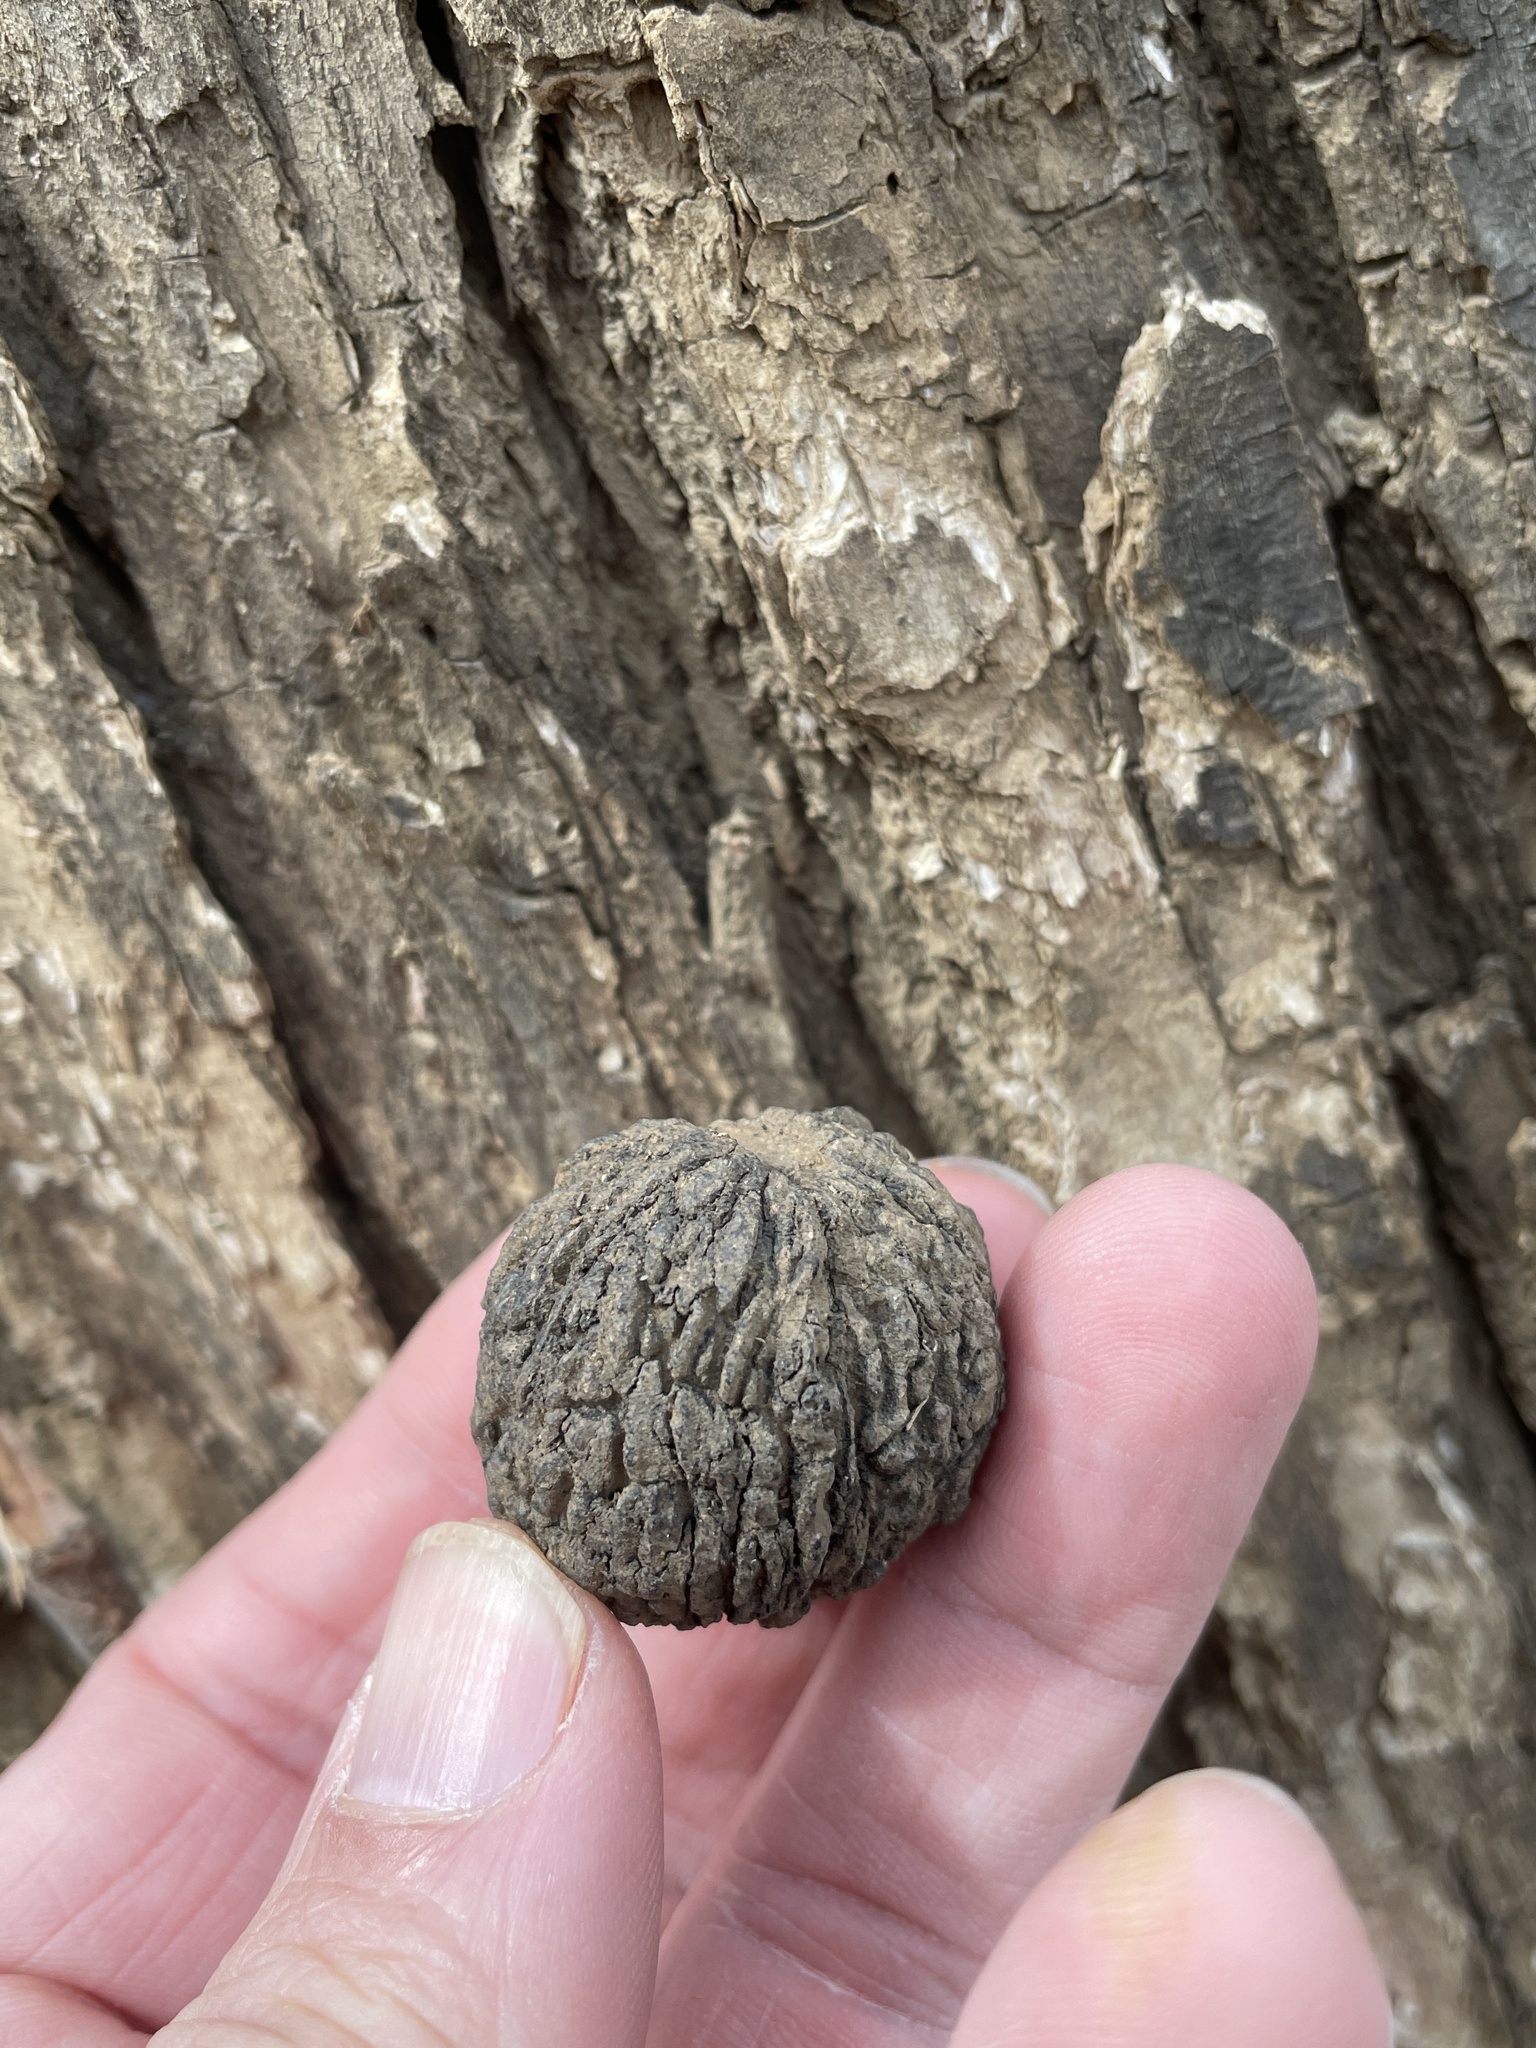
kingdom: Plantae
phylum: Tracheophyta
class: Magnoliopsida
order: Fagales
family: Juglandaceae
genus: Juglans
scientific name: Juglans nigra
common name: Black walnut
